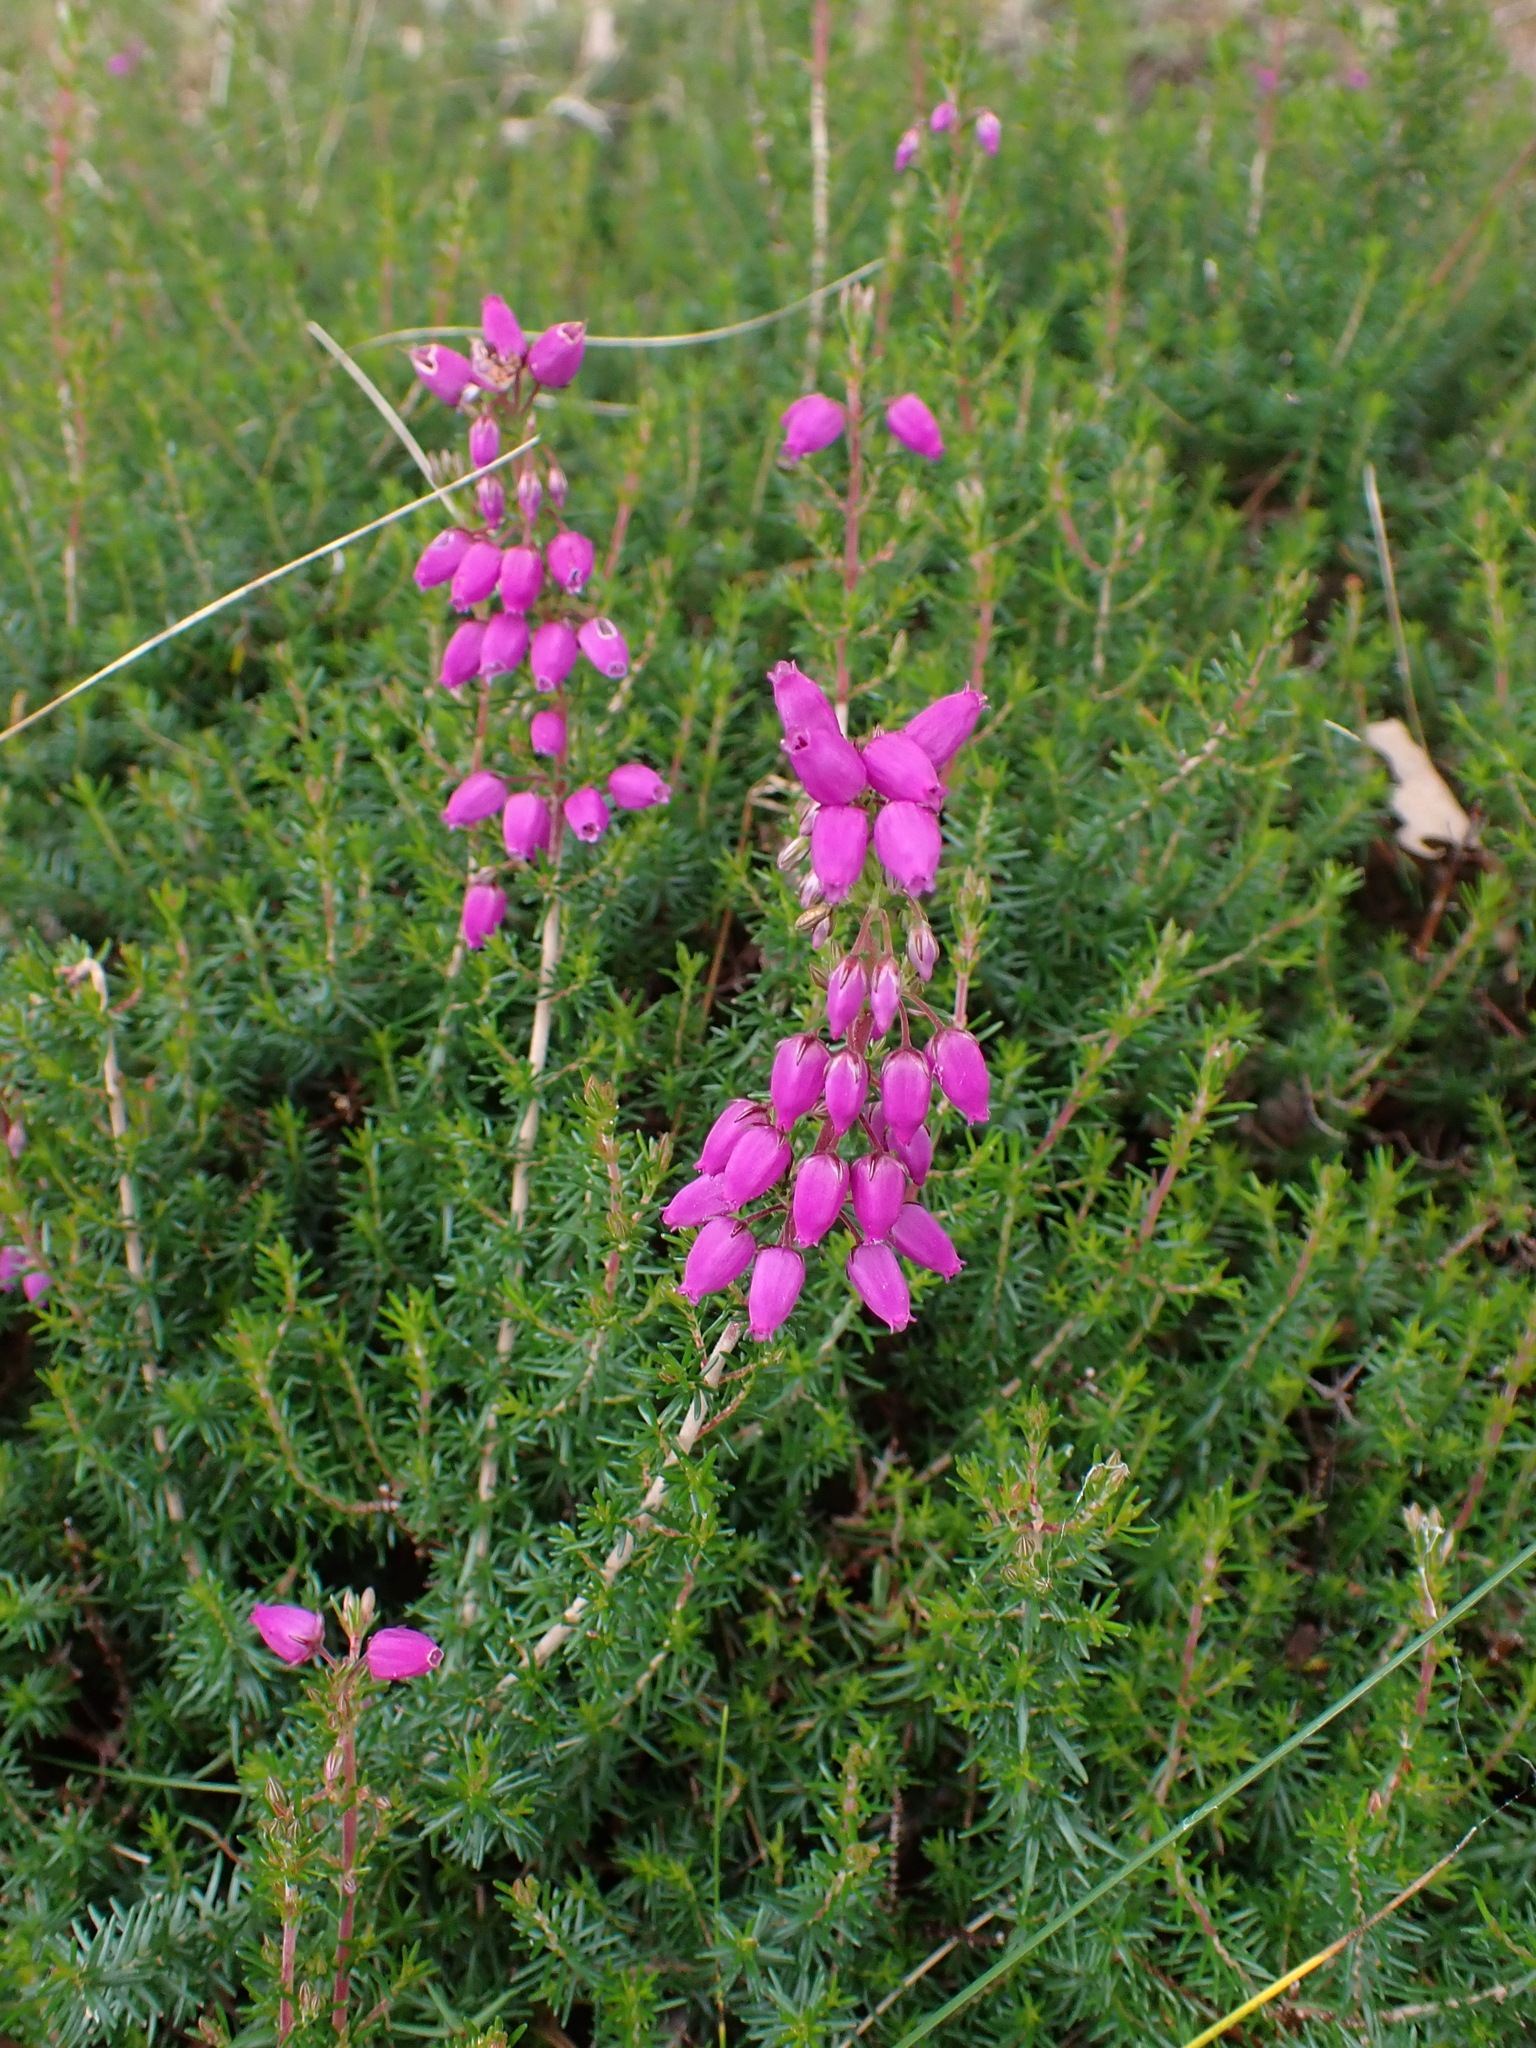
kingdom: Plantae
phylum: Tracheophyta
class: Magnoliopsida
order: Ericales
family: Ericaceae
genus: Erica
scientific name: Erica cinerea
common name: Bell heather
